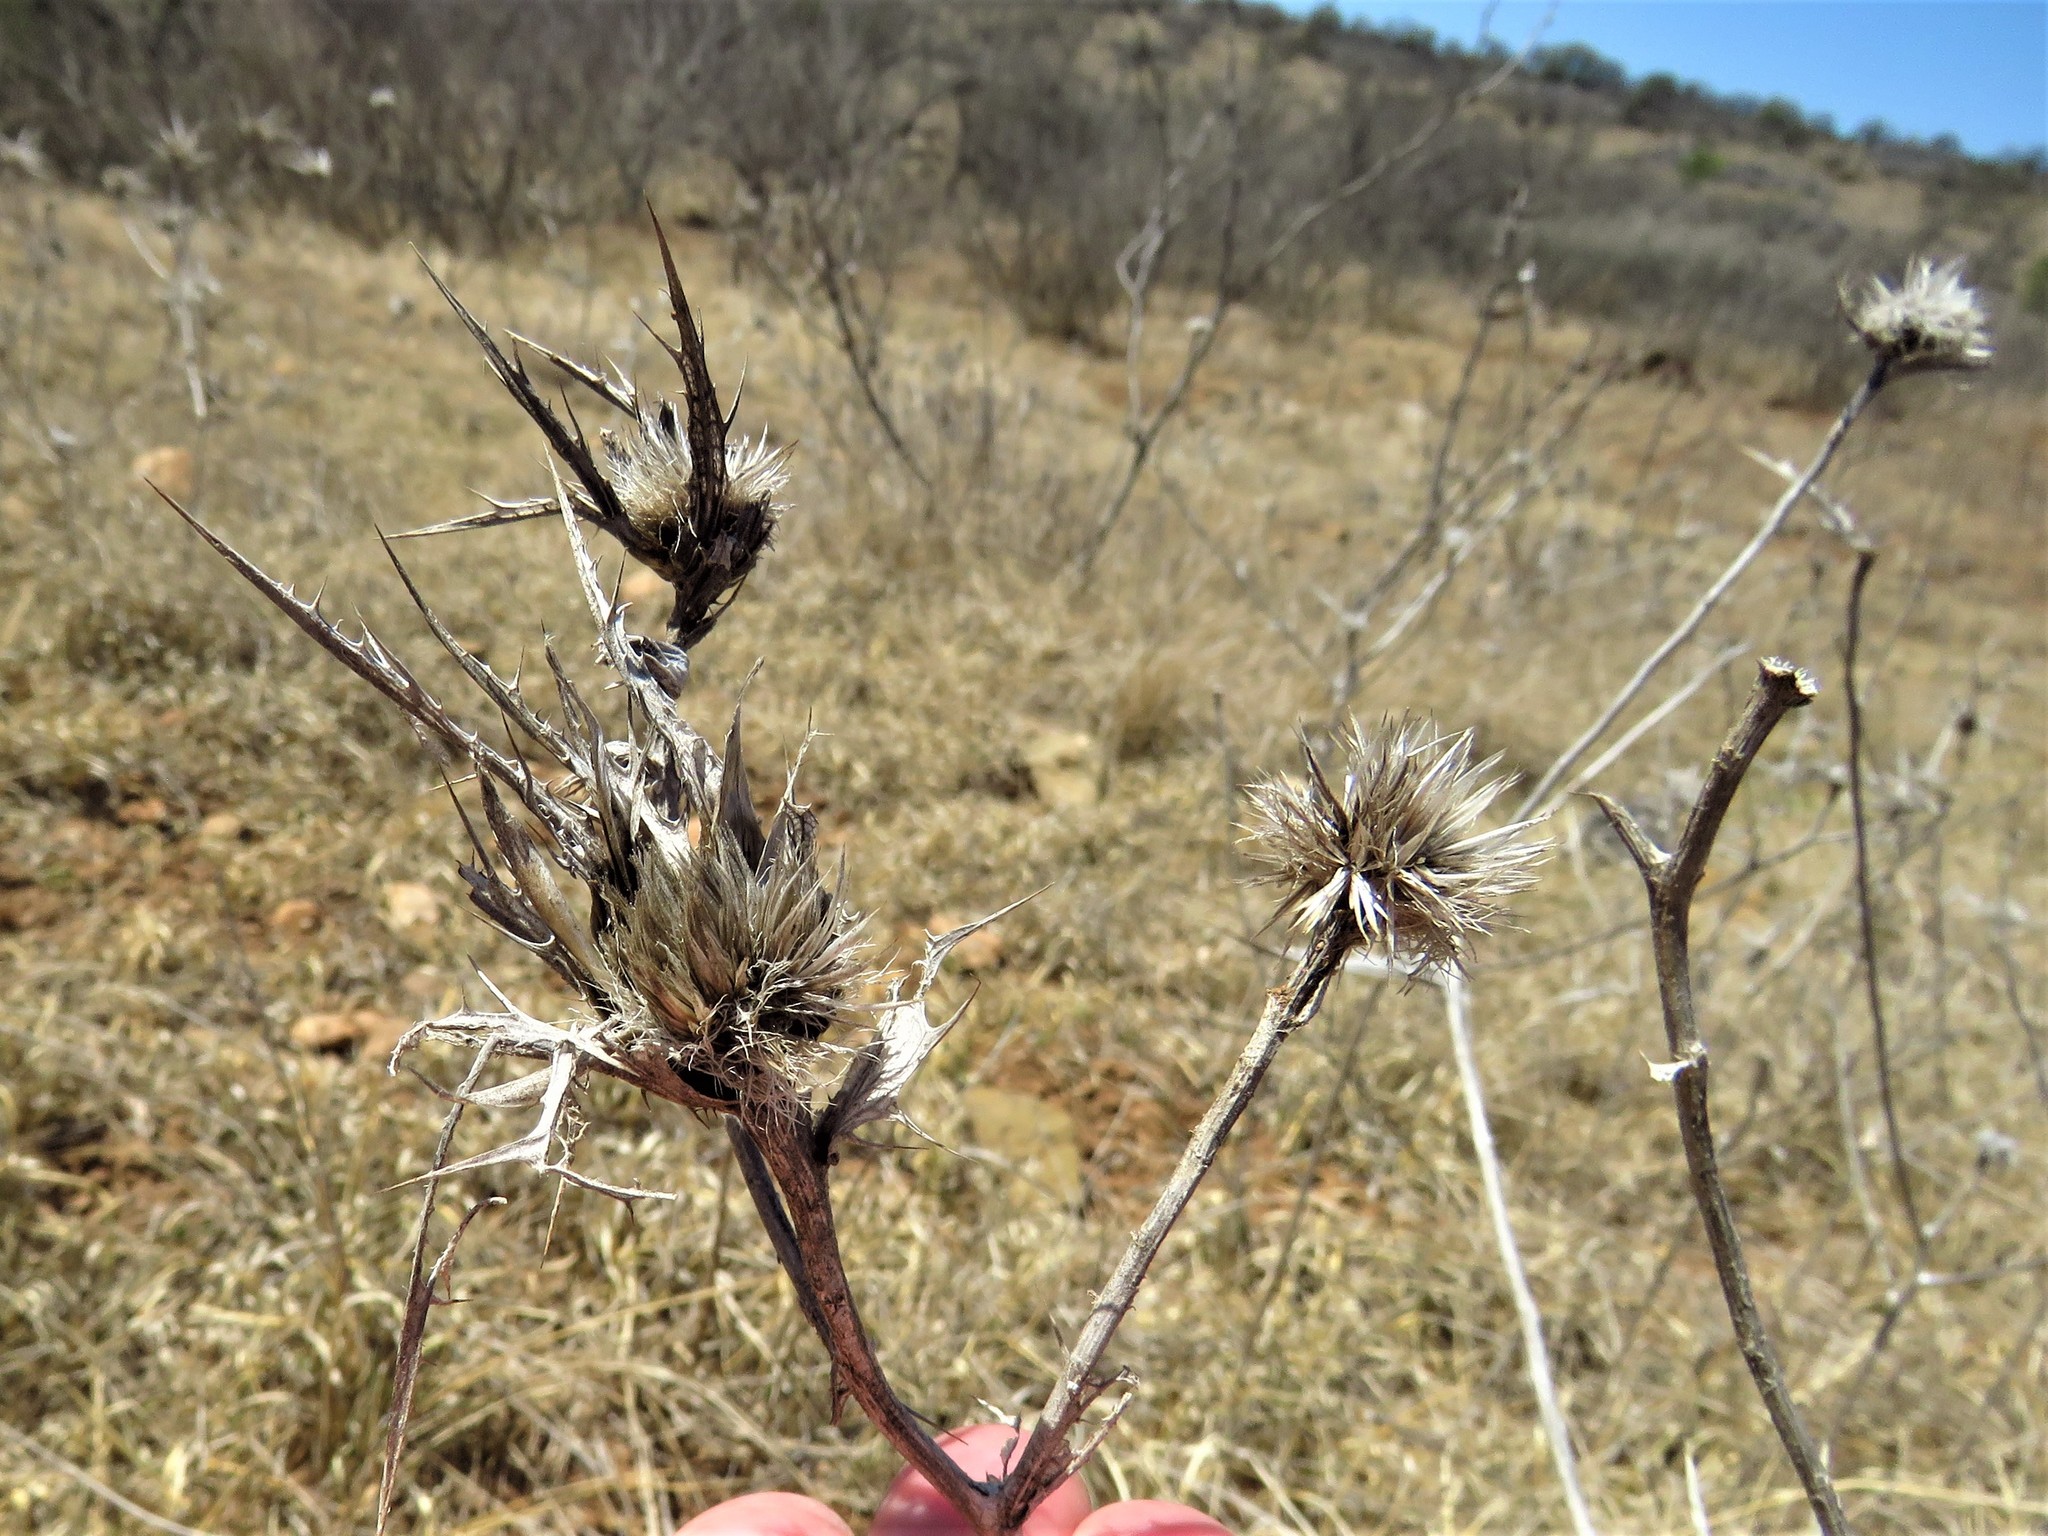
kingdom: Plantae
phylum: Tracheophyta
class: Magnoliopsida
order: Asterales
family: Asteraceae
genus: Carthamus
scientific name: Carthamus lanatus
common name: Downy safflower
